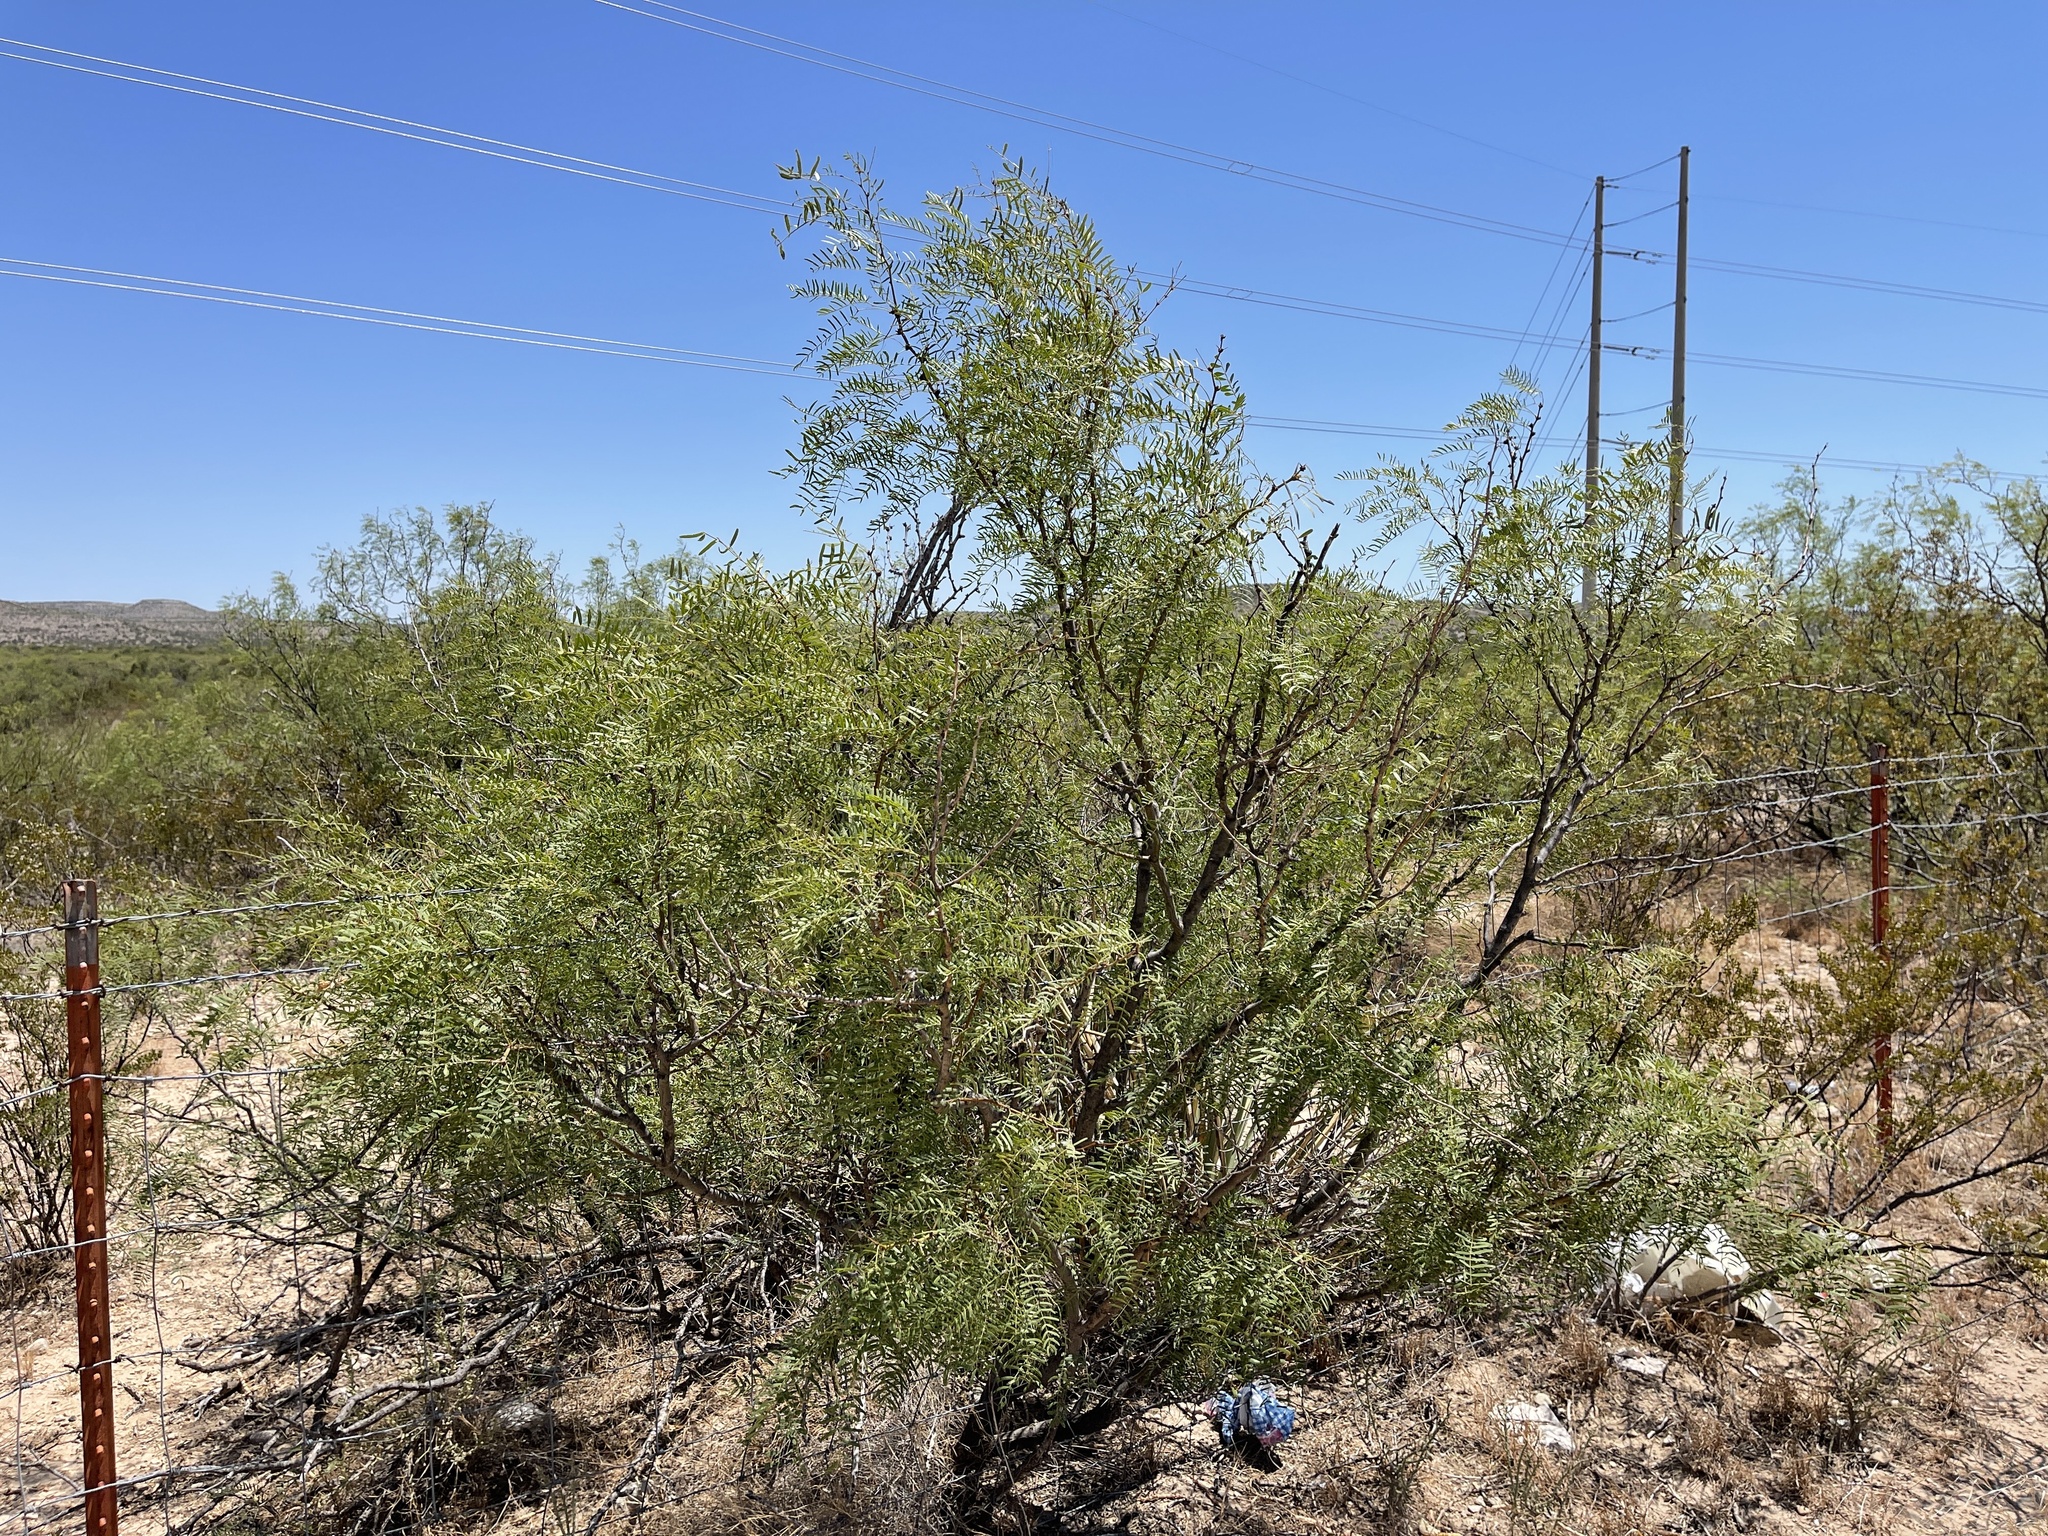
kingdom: Plantae
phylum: Tracheophyta
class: Magnoliopsida
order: Fabales
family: Fabaceae
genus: Prosopis
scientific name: Prosopis glandulosa
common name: Honey mesquite
